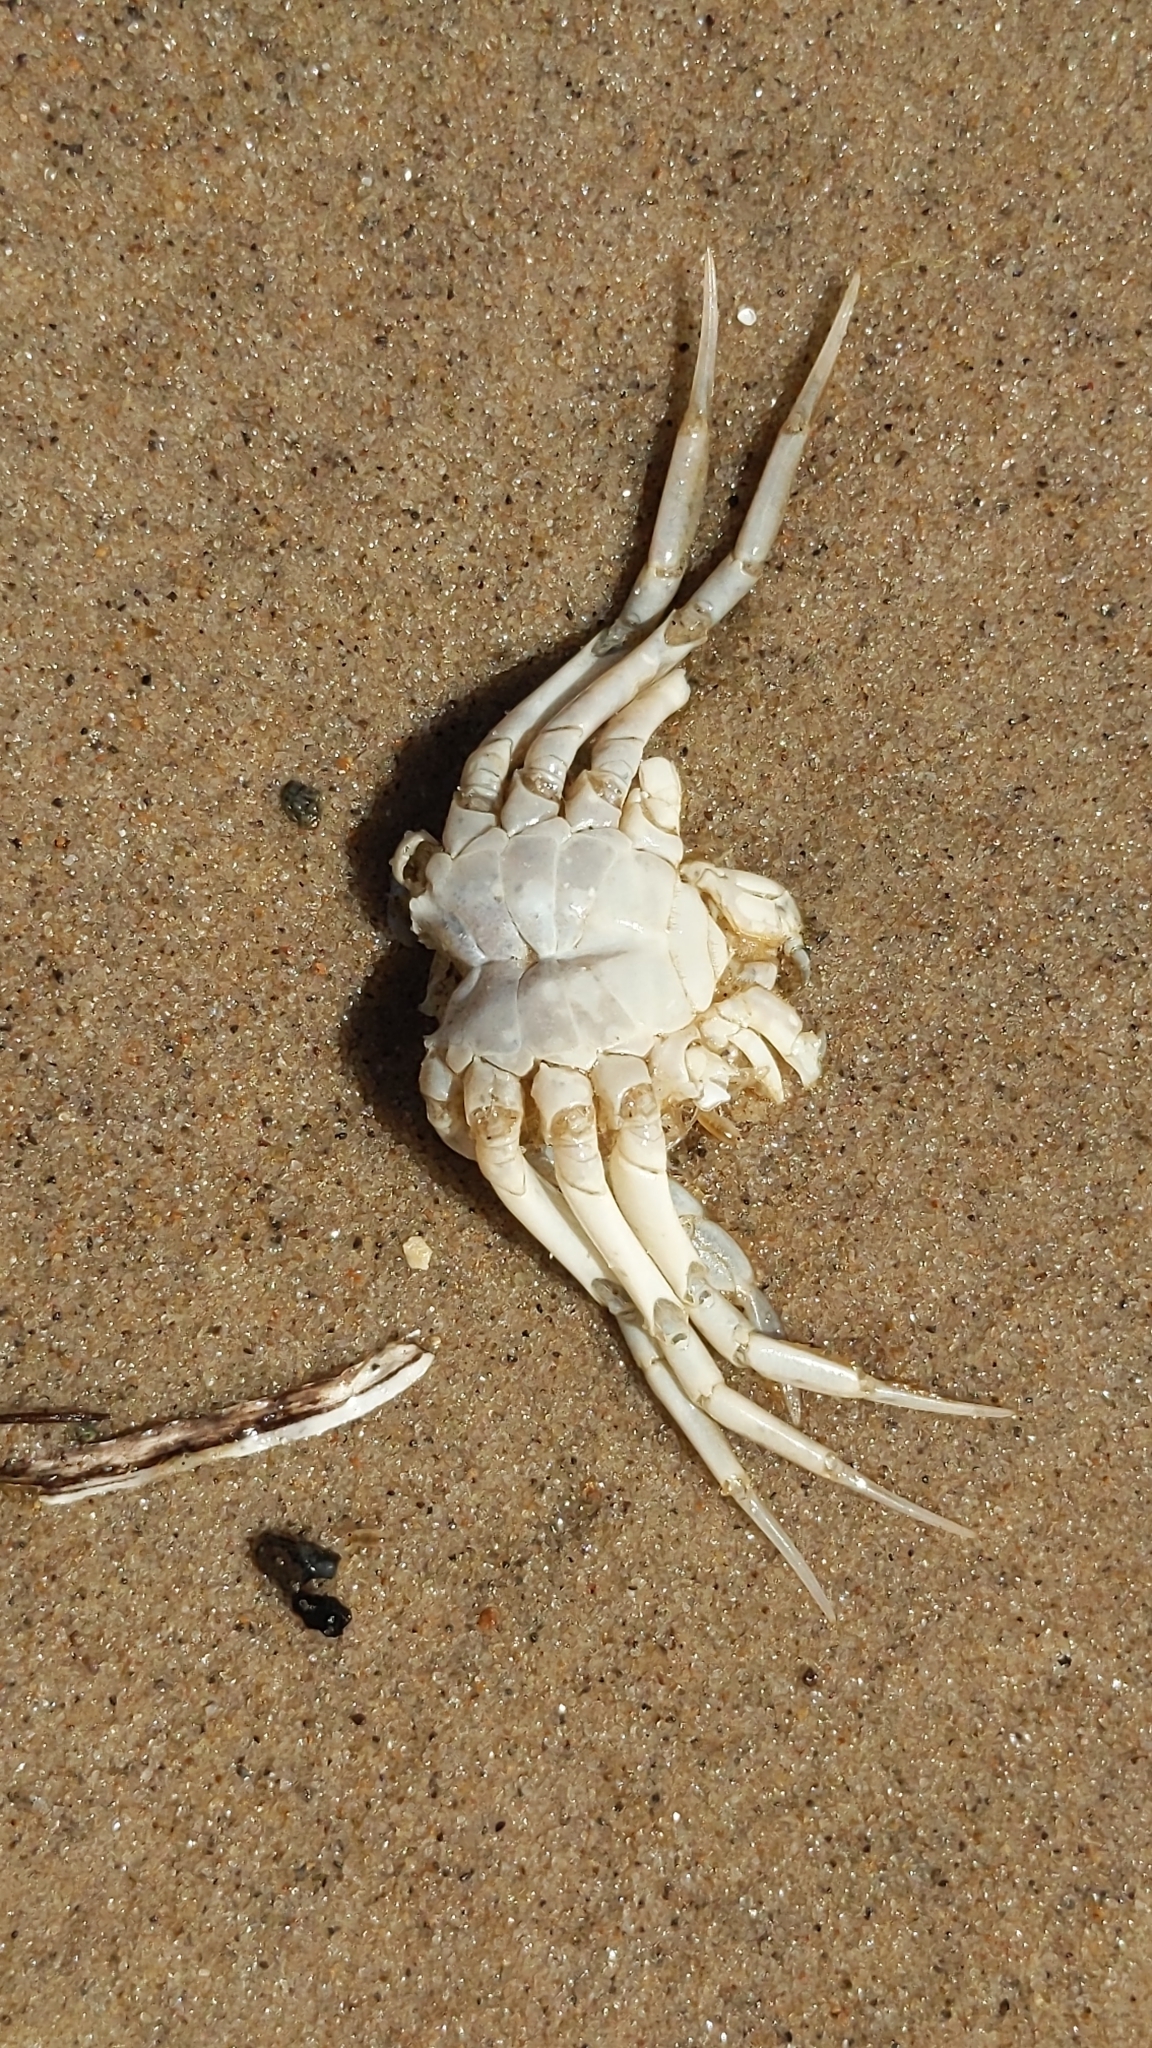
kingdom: Animalia
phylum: Arthropoda
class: Malacostraca
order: Decapoda
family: Carcinidae
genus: Carcinus
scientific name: Carcinus maenas
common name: European green crab
